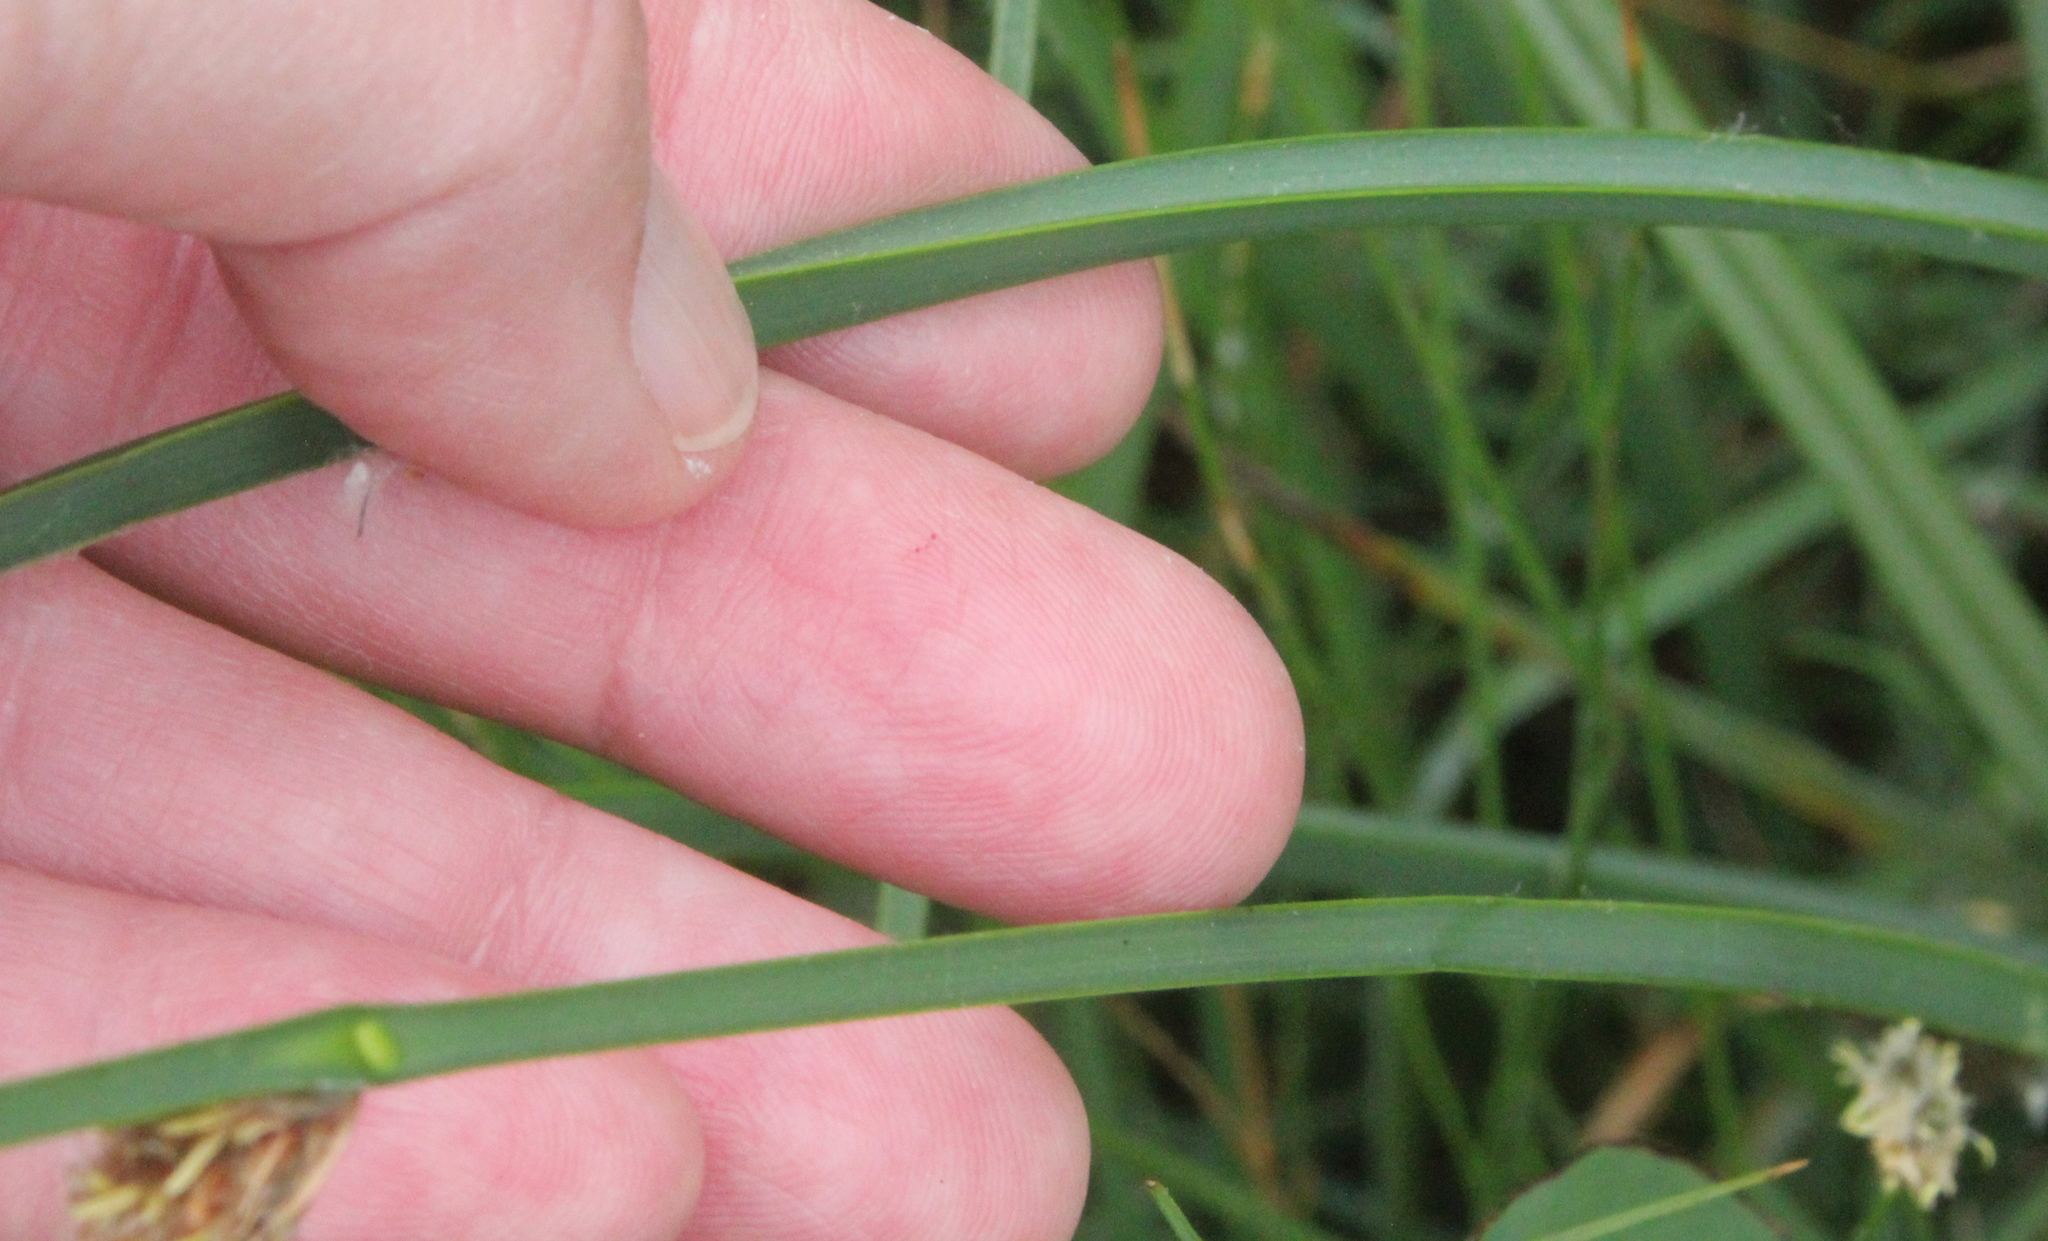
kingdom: Plantae
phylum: Tracheophyta
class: Liliopsida
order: Poales
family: Cyperaceae
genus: Schoenoplectus
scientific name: Schoenoplectus pungens
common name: Sharp club-rush
